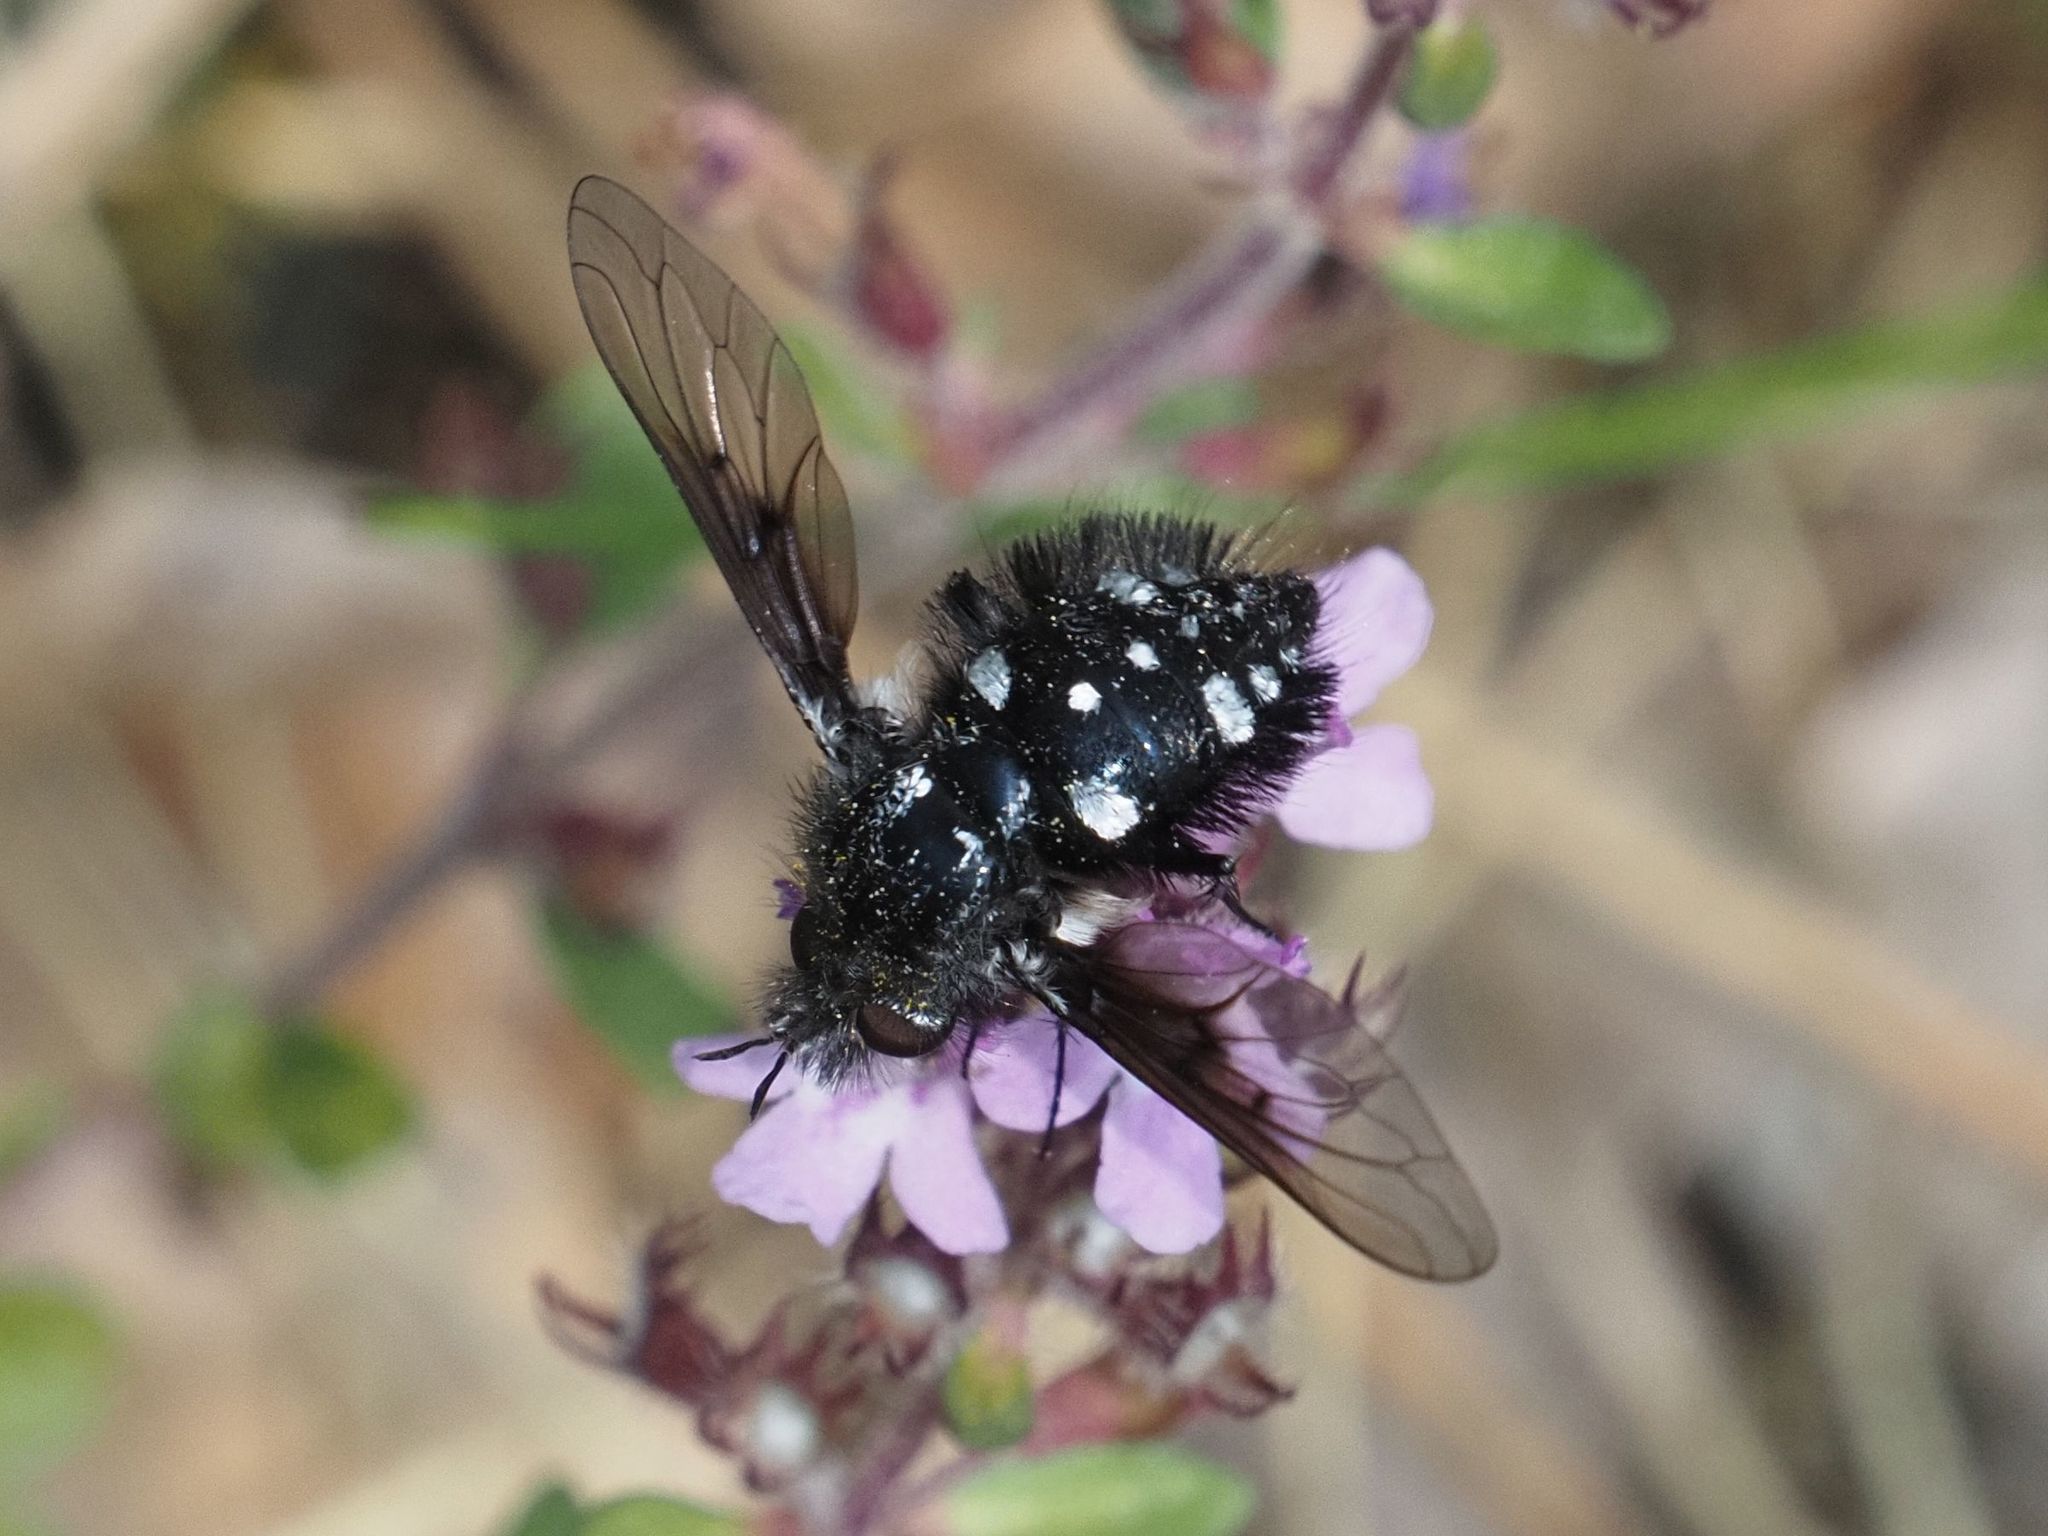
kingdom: Animalia
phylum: Arthropoda
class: Insecta
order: Diptera
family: Bombyliidae
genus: Bombylella
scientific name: Bombylella atra
